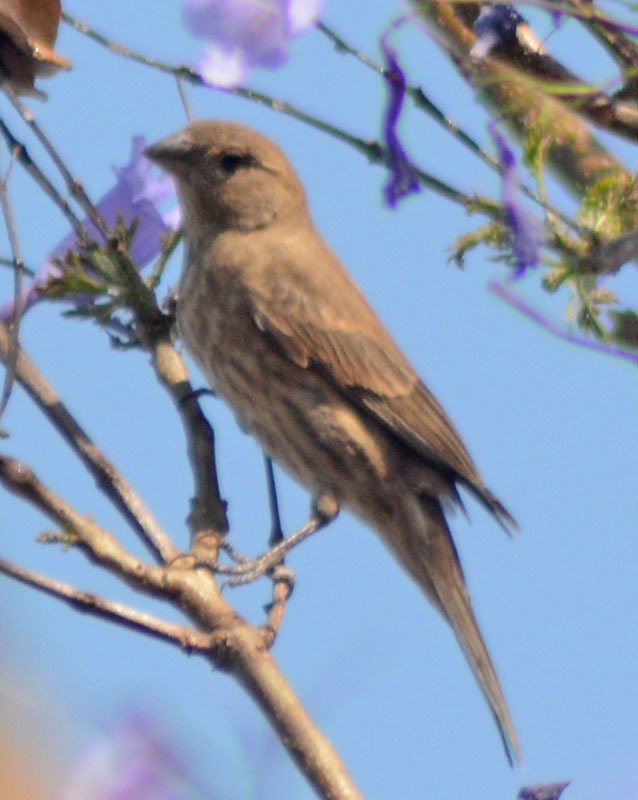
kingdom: Animalia
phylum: Chordata
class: Aves
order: Passeriformes
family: Fringillidae
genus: Haemorhous
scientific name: Haemorhous mexicanus
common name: House finch
